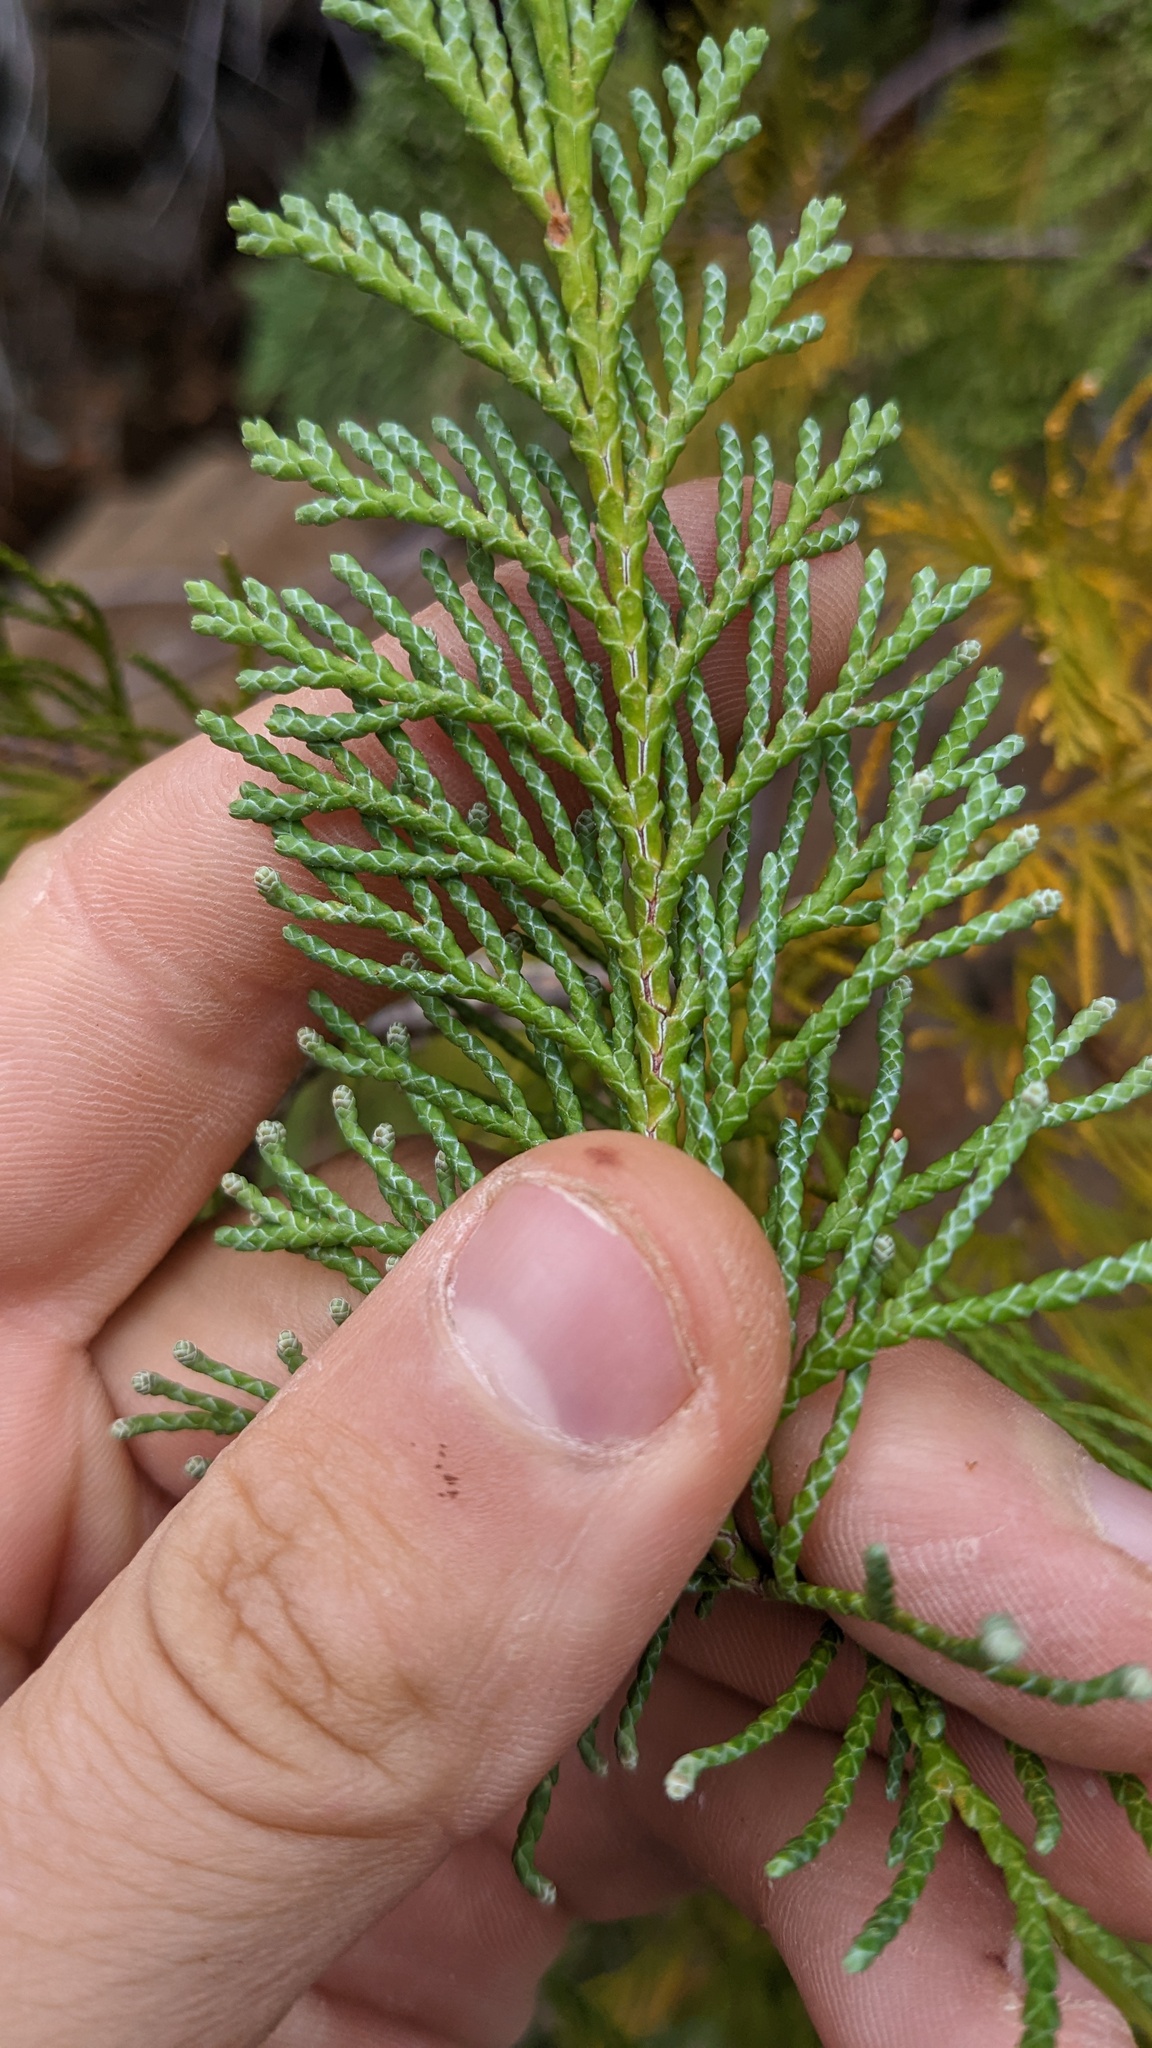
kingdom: Plantae
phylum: Tracheophyta
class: Pinopsida
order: Pinales
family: Cupressaceae
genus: Chamaecyparis
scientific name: Chamaecyparis lawsoniana
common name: Lawson's cypress
